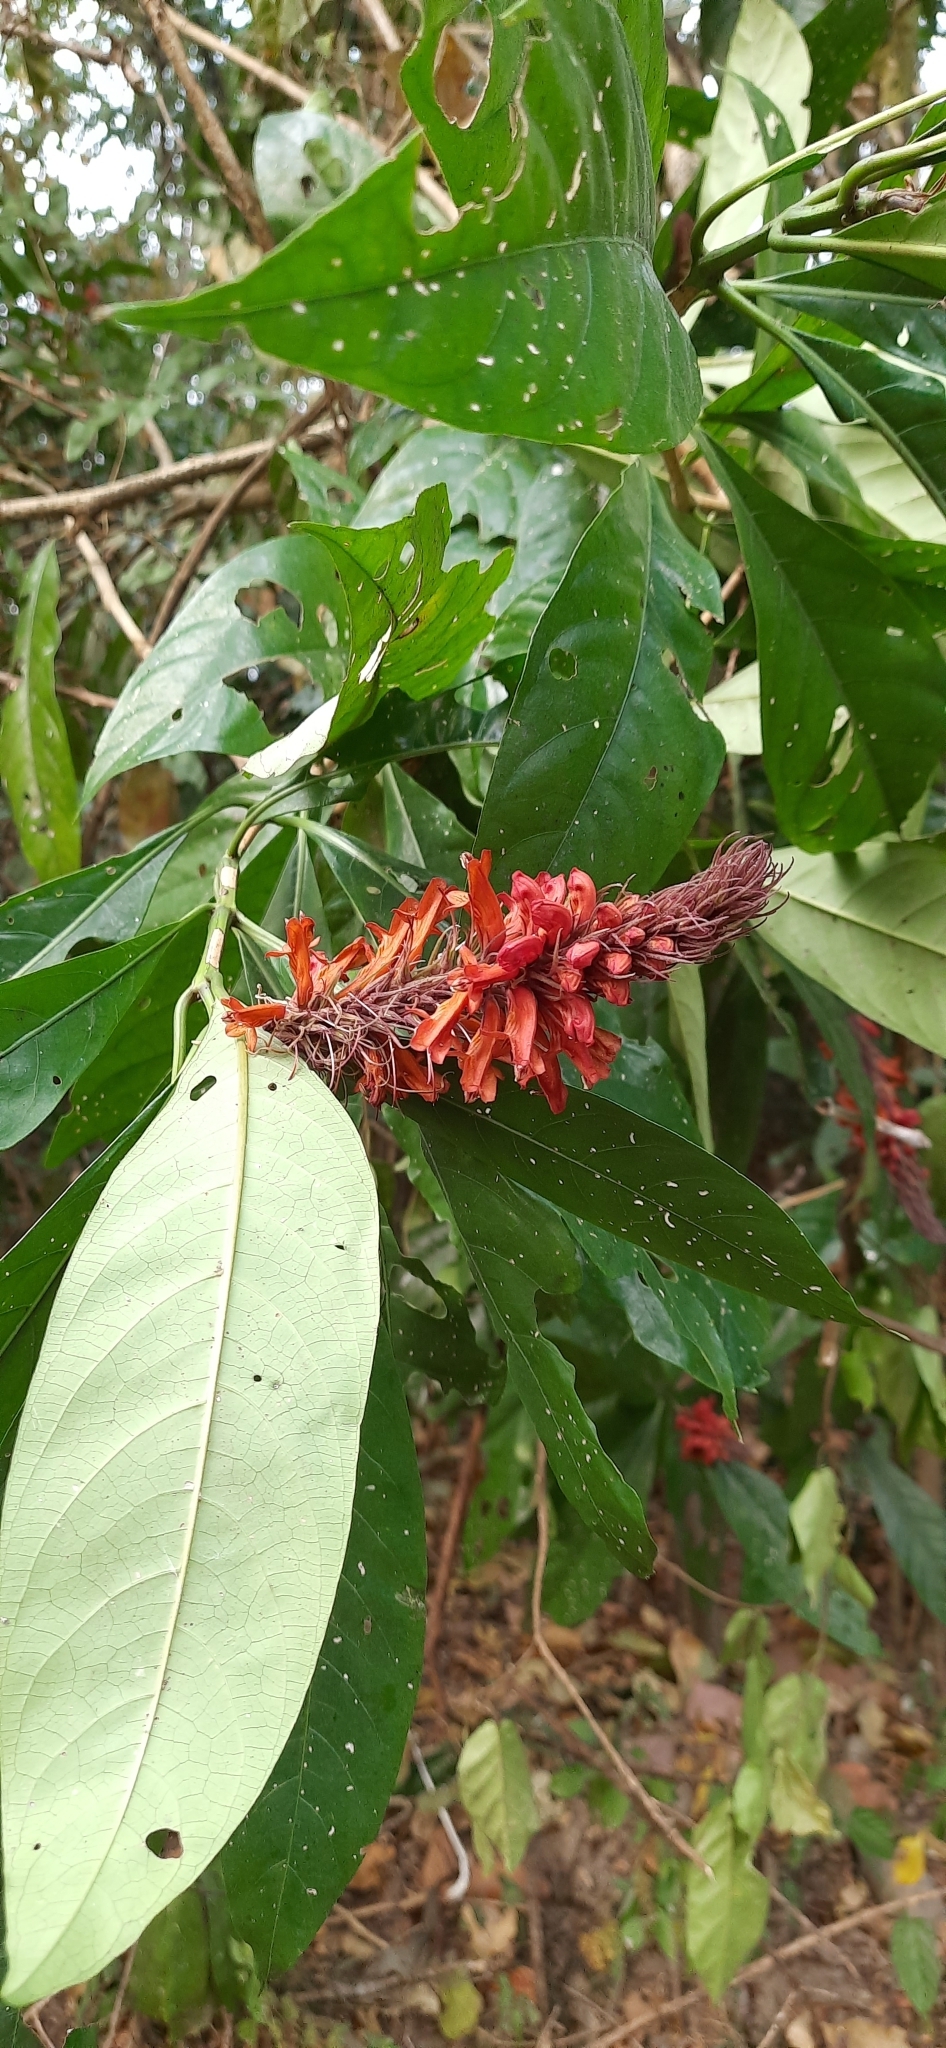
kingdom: Plantae
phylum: Tracheophyta
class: Magnoliopsida
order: Lamiales
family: Acanthaceae
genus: Phlogacanthus
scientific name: Phlogacanthus curviflorus
